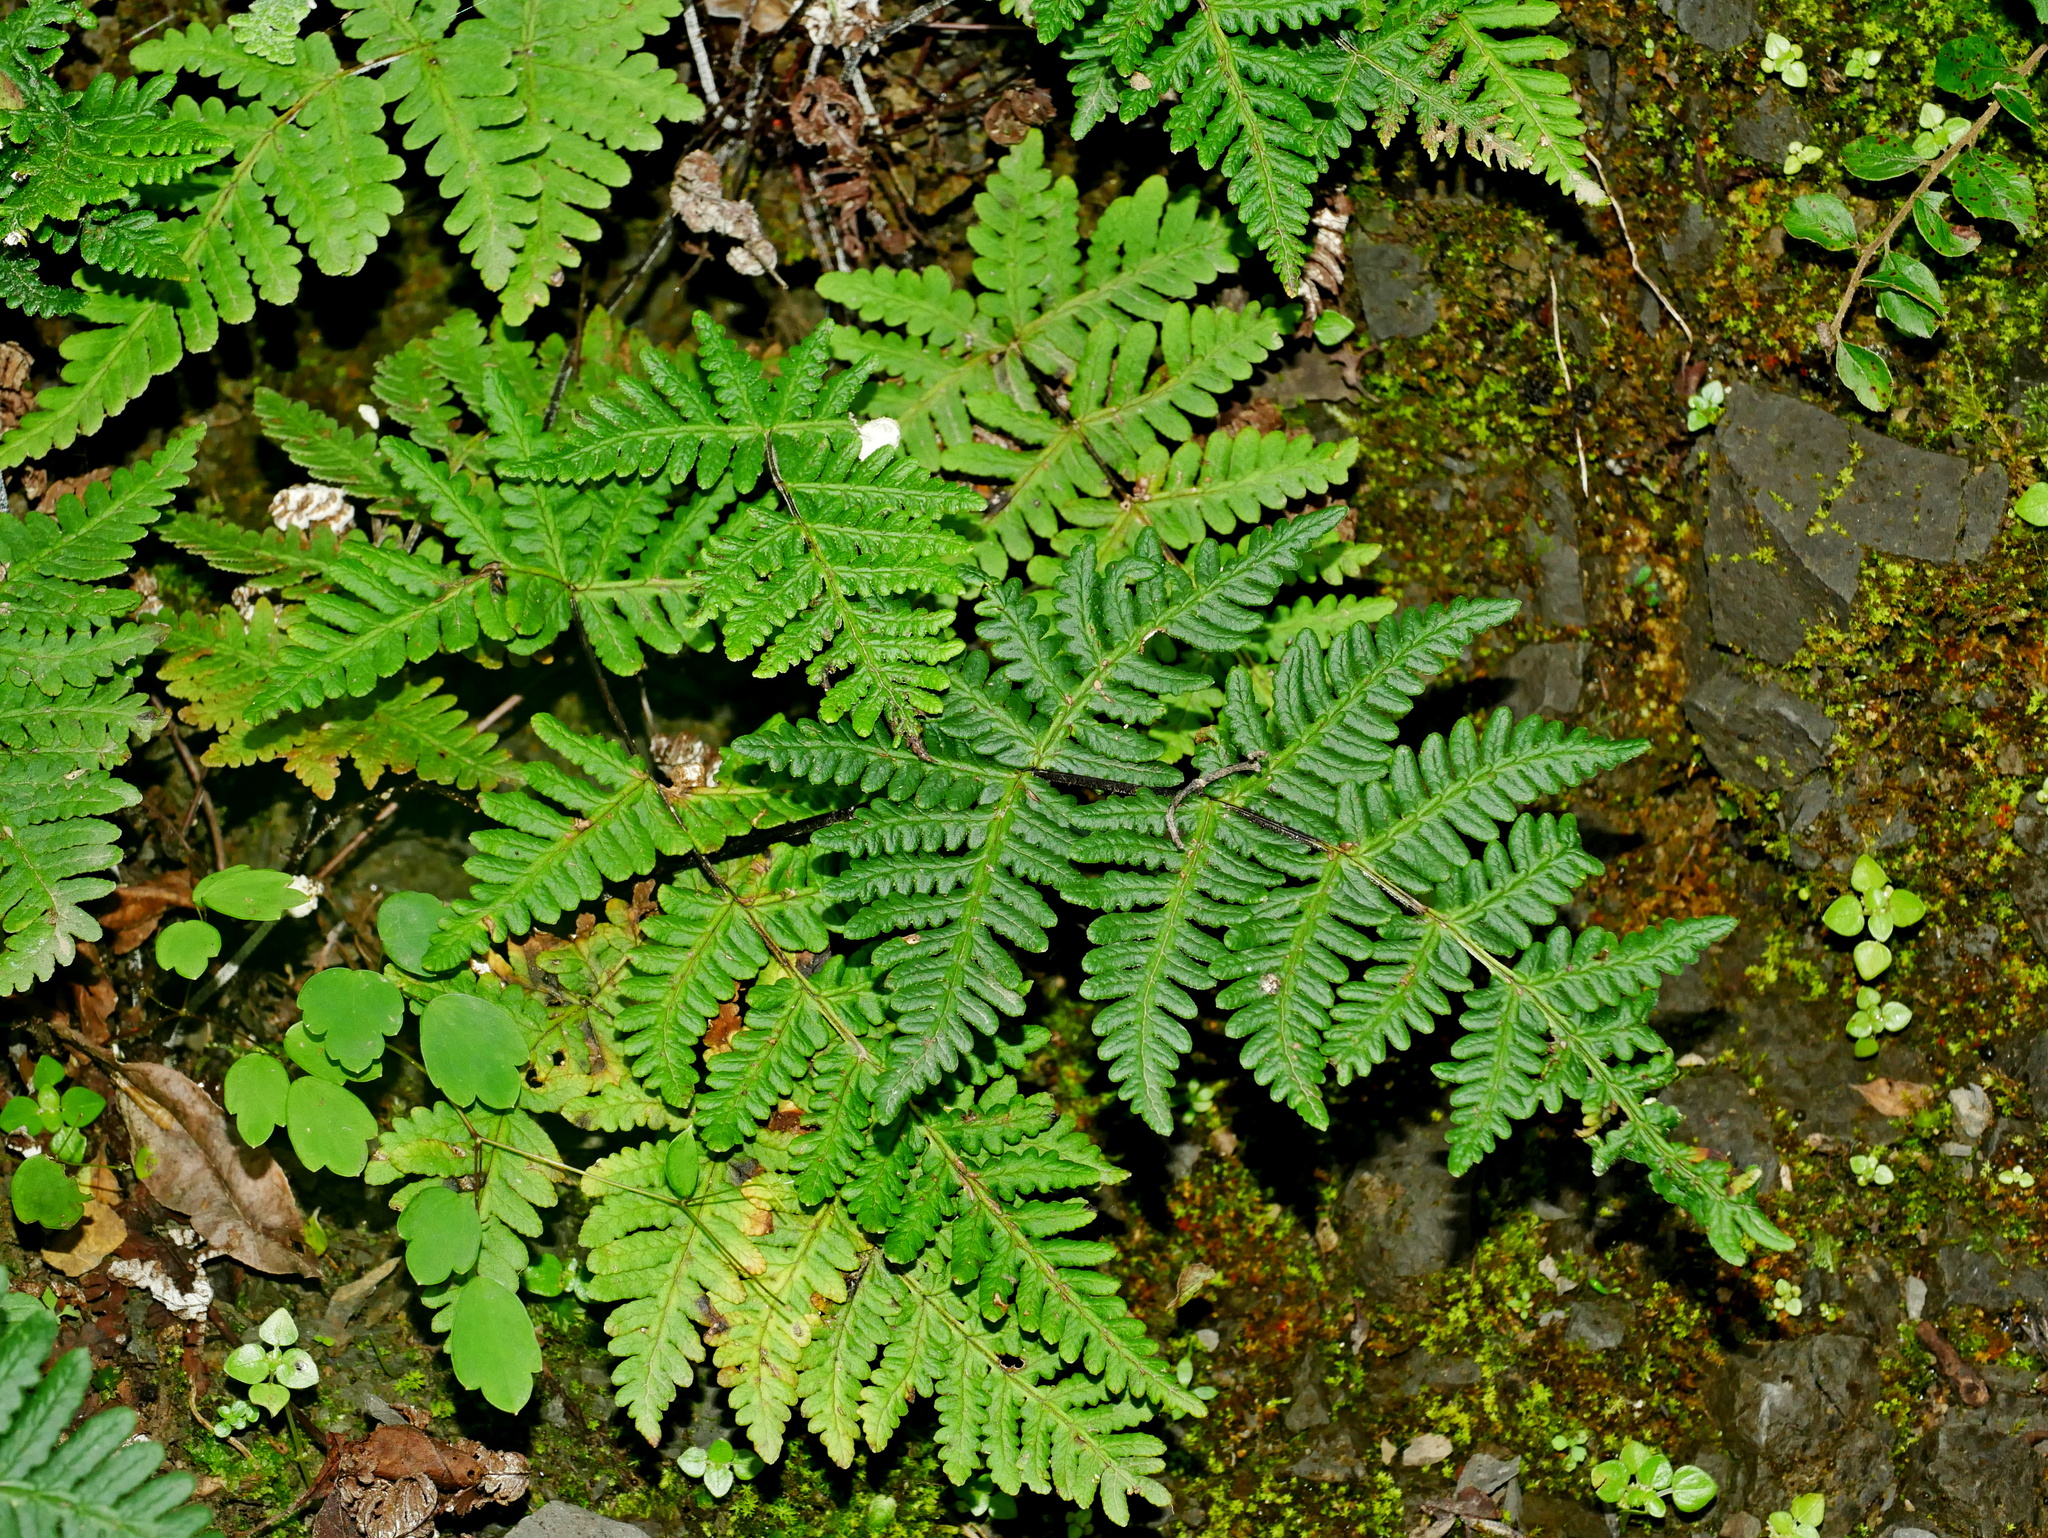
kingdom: Plantae
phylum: Tracheophyta
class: Polypodiopsida
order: Polypodiales
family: Pteridaceae
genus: Aleuritopteris
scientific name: Aleuritopteris formosana
